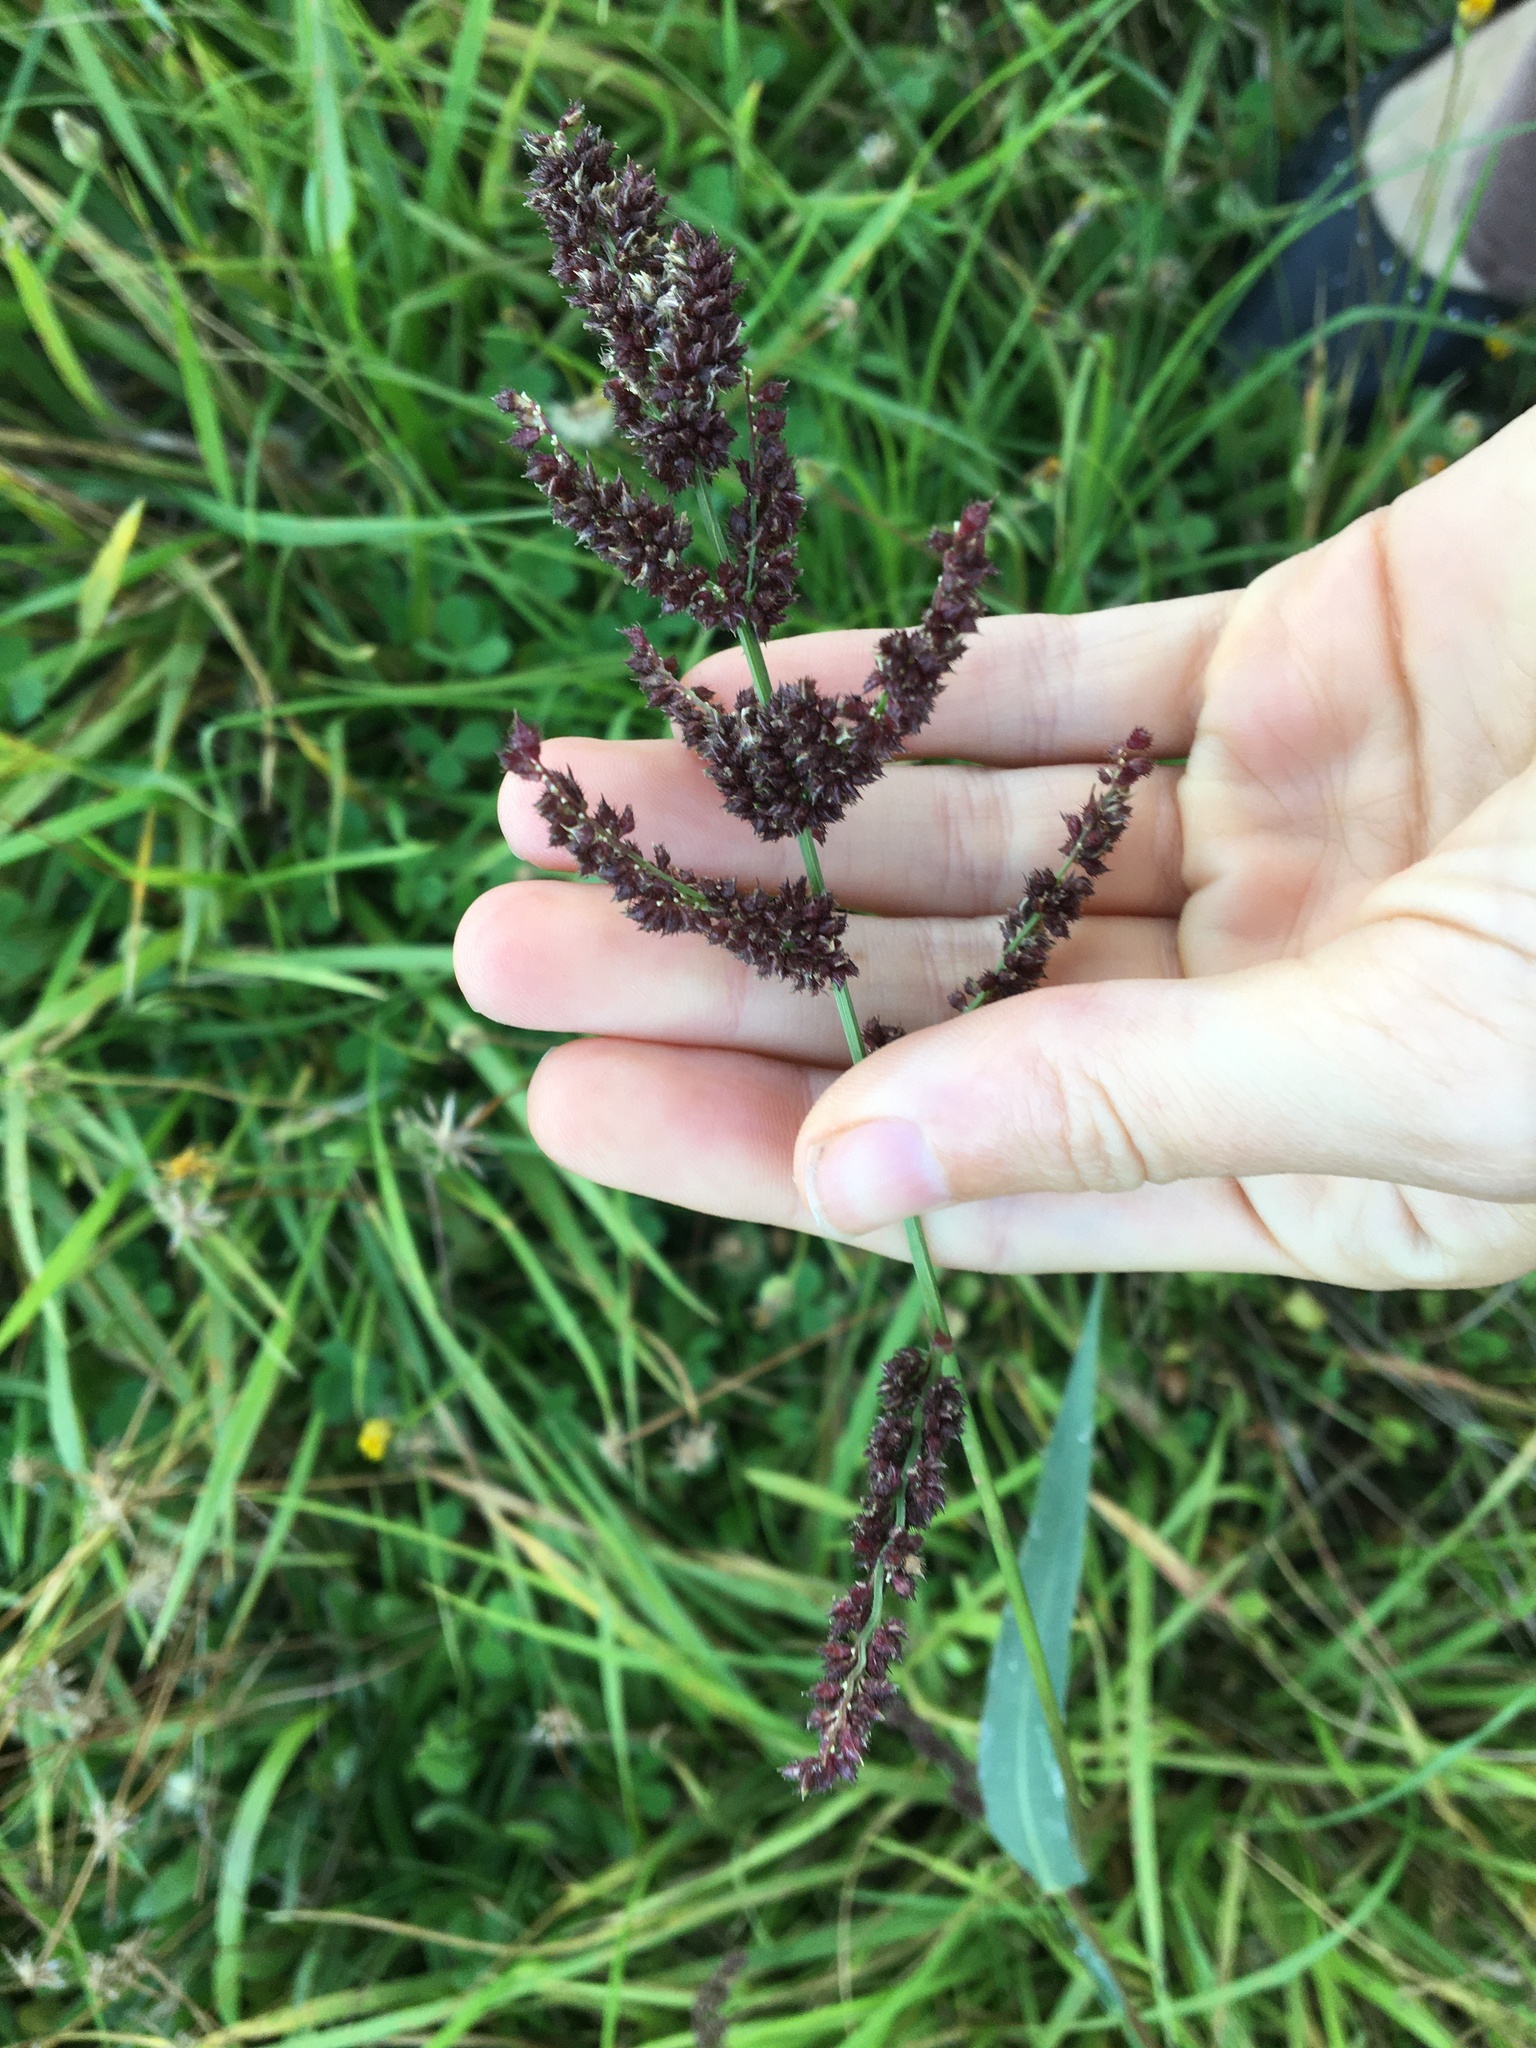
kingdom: Plantae
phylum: Tracheophyta
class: Liliopsida
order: Poales
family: Poaceae
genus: Echinochloa
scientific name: Echinochloa crus-galli
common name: Cockspur
